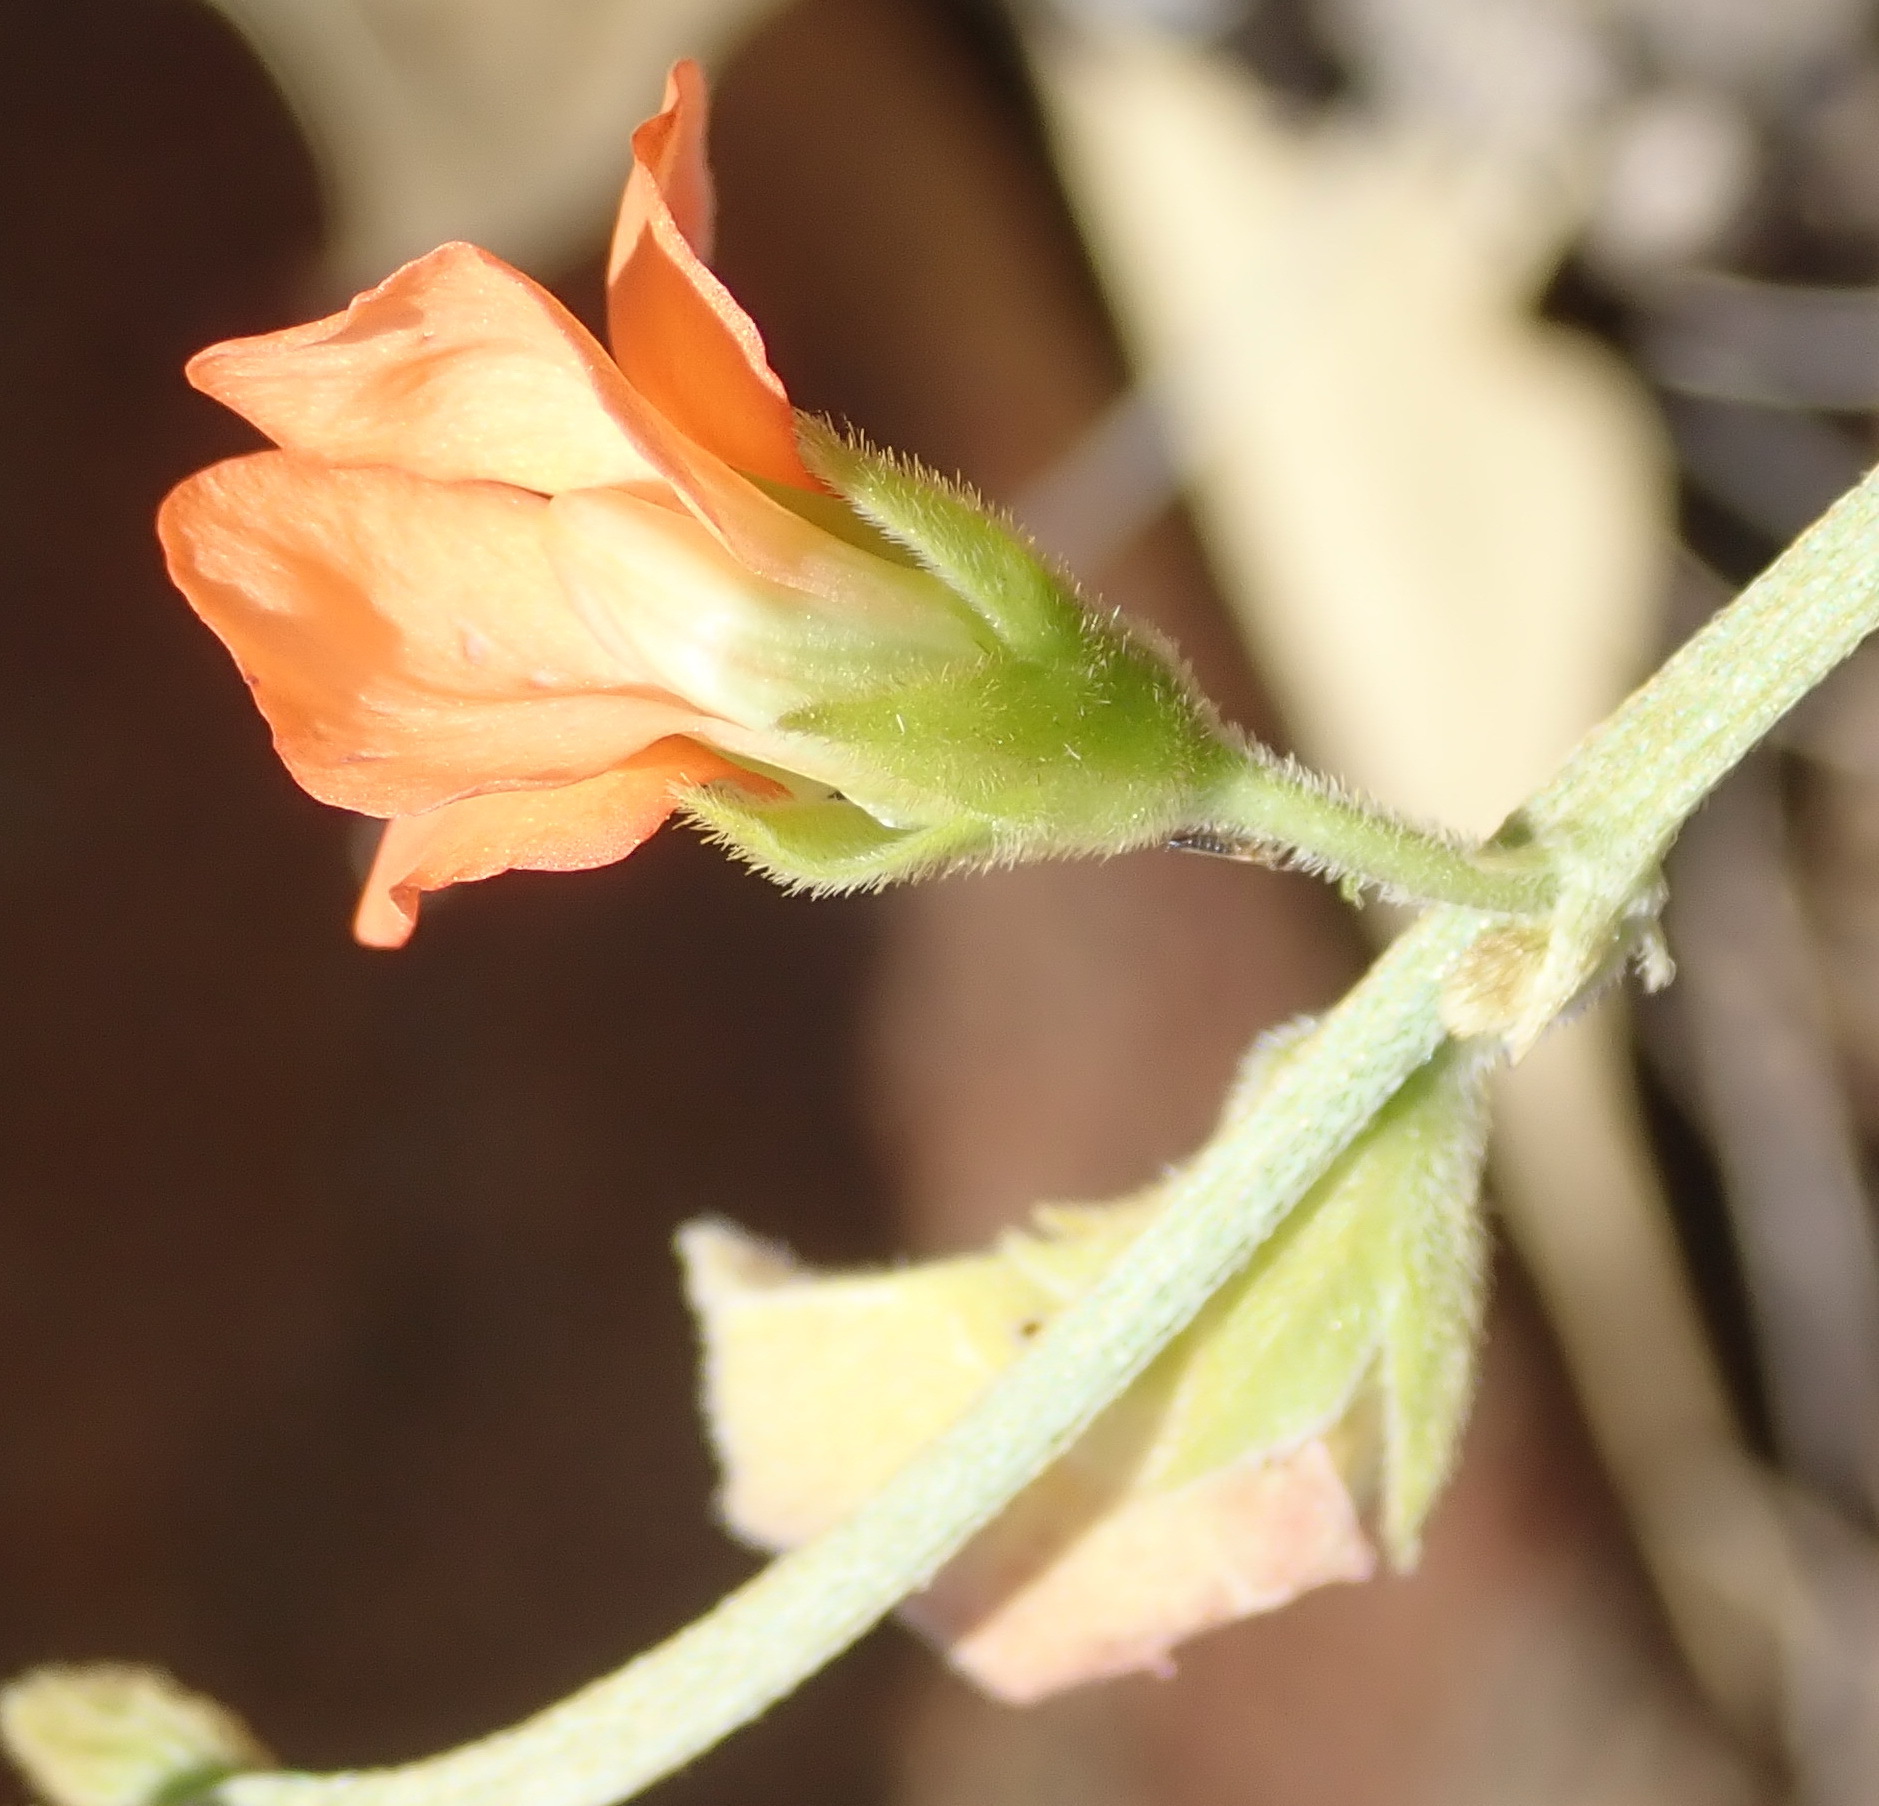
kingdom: Plantae
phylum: Tracheophyta
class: Magnoliopsida
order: Fabales
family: Fabaceae
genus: Tephrosia
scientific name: Tephrosia elongata
